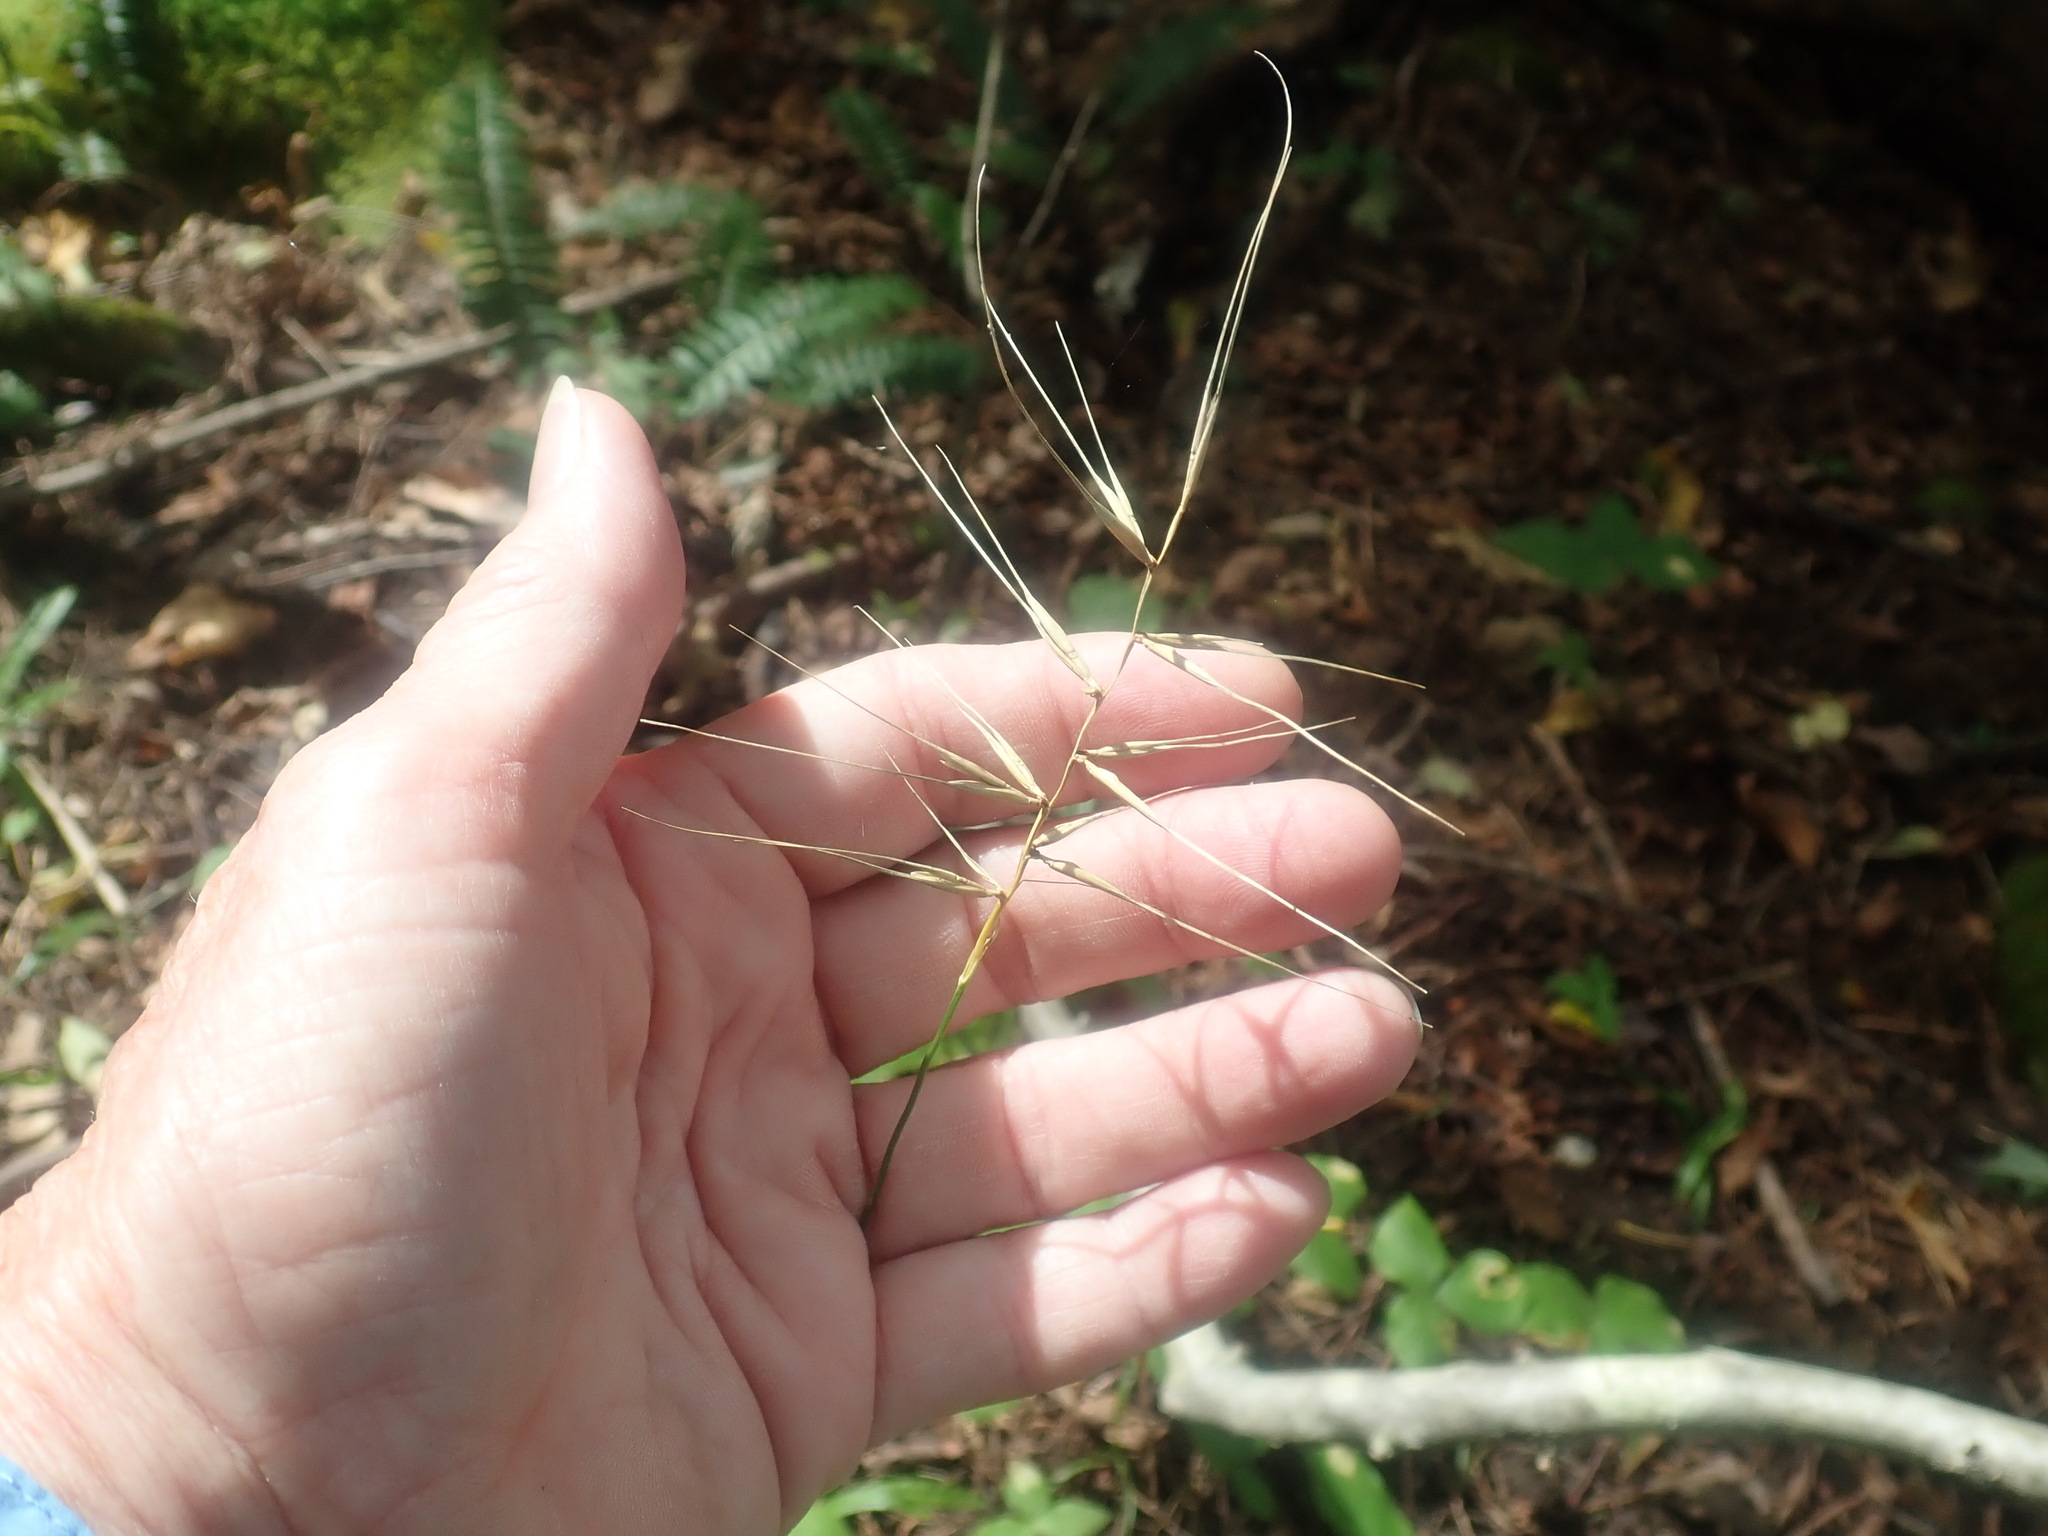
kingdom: Plantae
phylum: Tracheophyta
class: Liliopsida
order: Poales
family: Poaceae
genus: Elymus
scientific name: Elymus hystrix
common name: Bottlebrush grass
